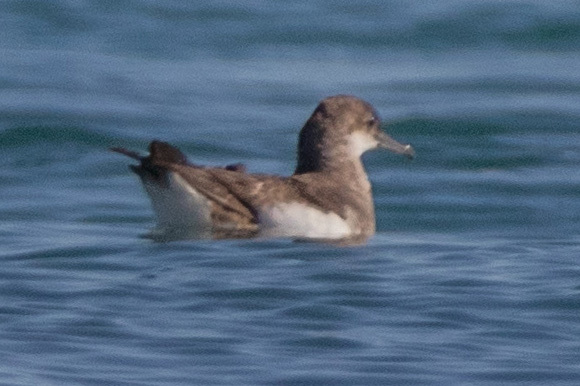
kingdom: Animalia
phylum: Chordata
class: Aves
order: Procellariiformes
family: Procellariidae
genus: Puffinus
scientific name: Puffinus gavia
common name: Fluttering shearwater
